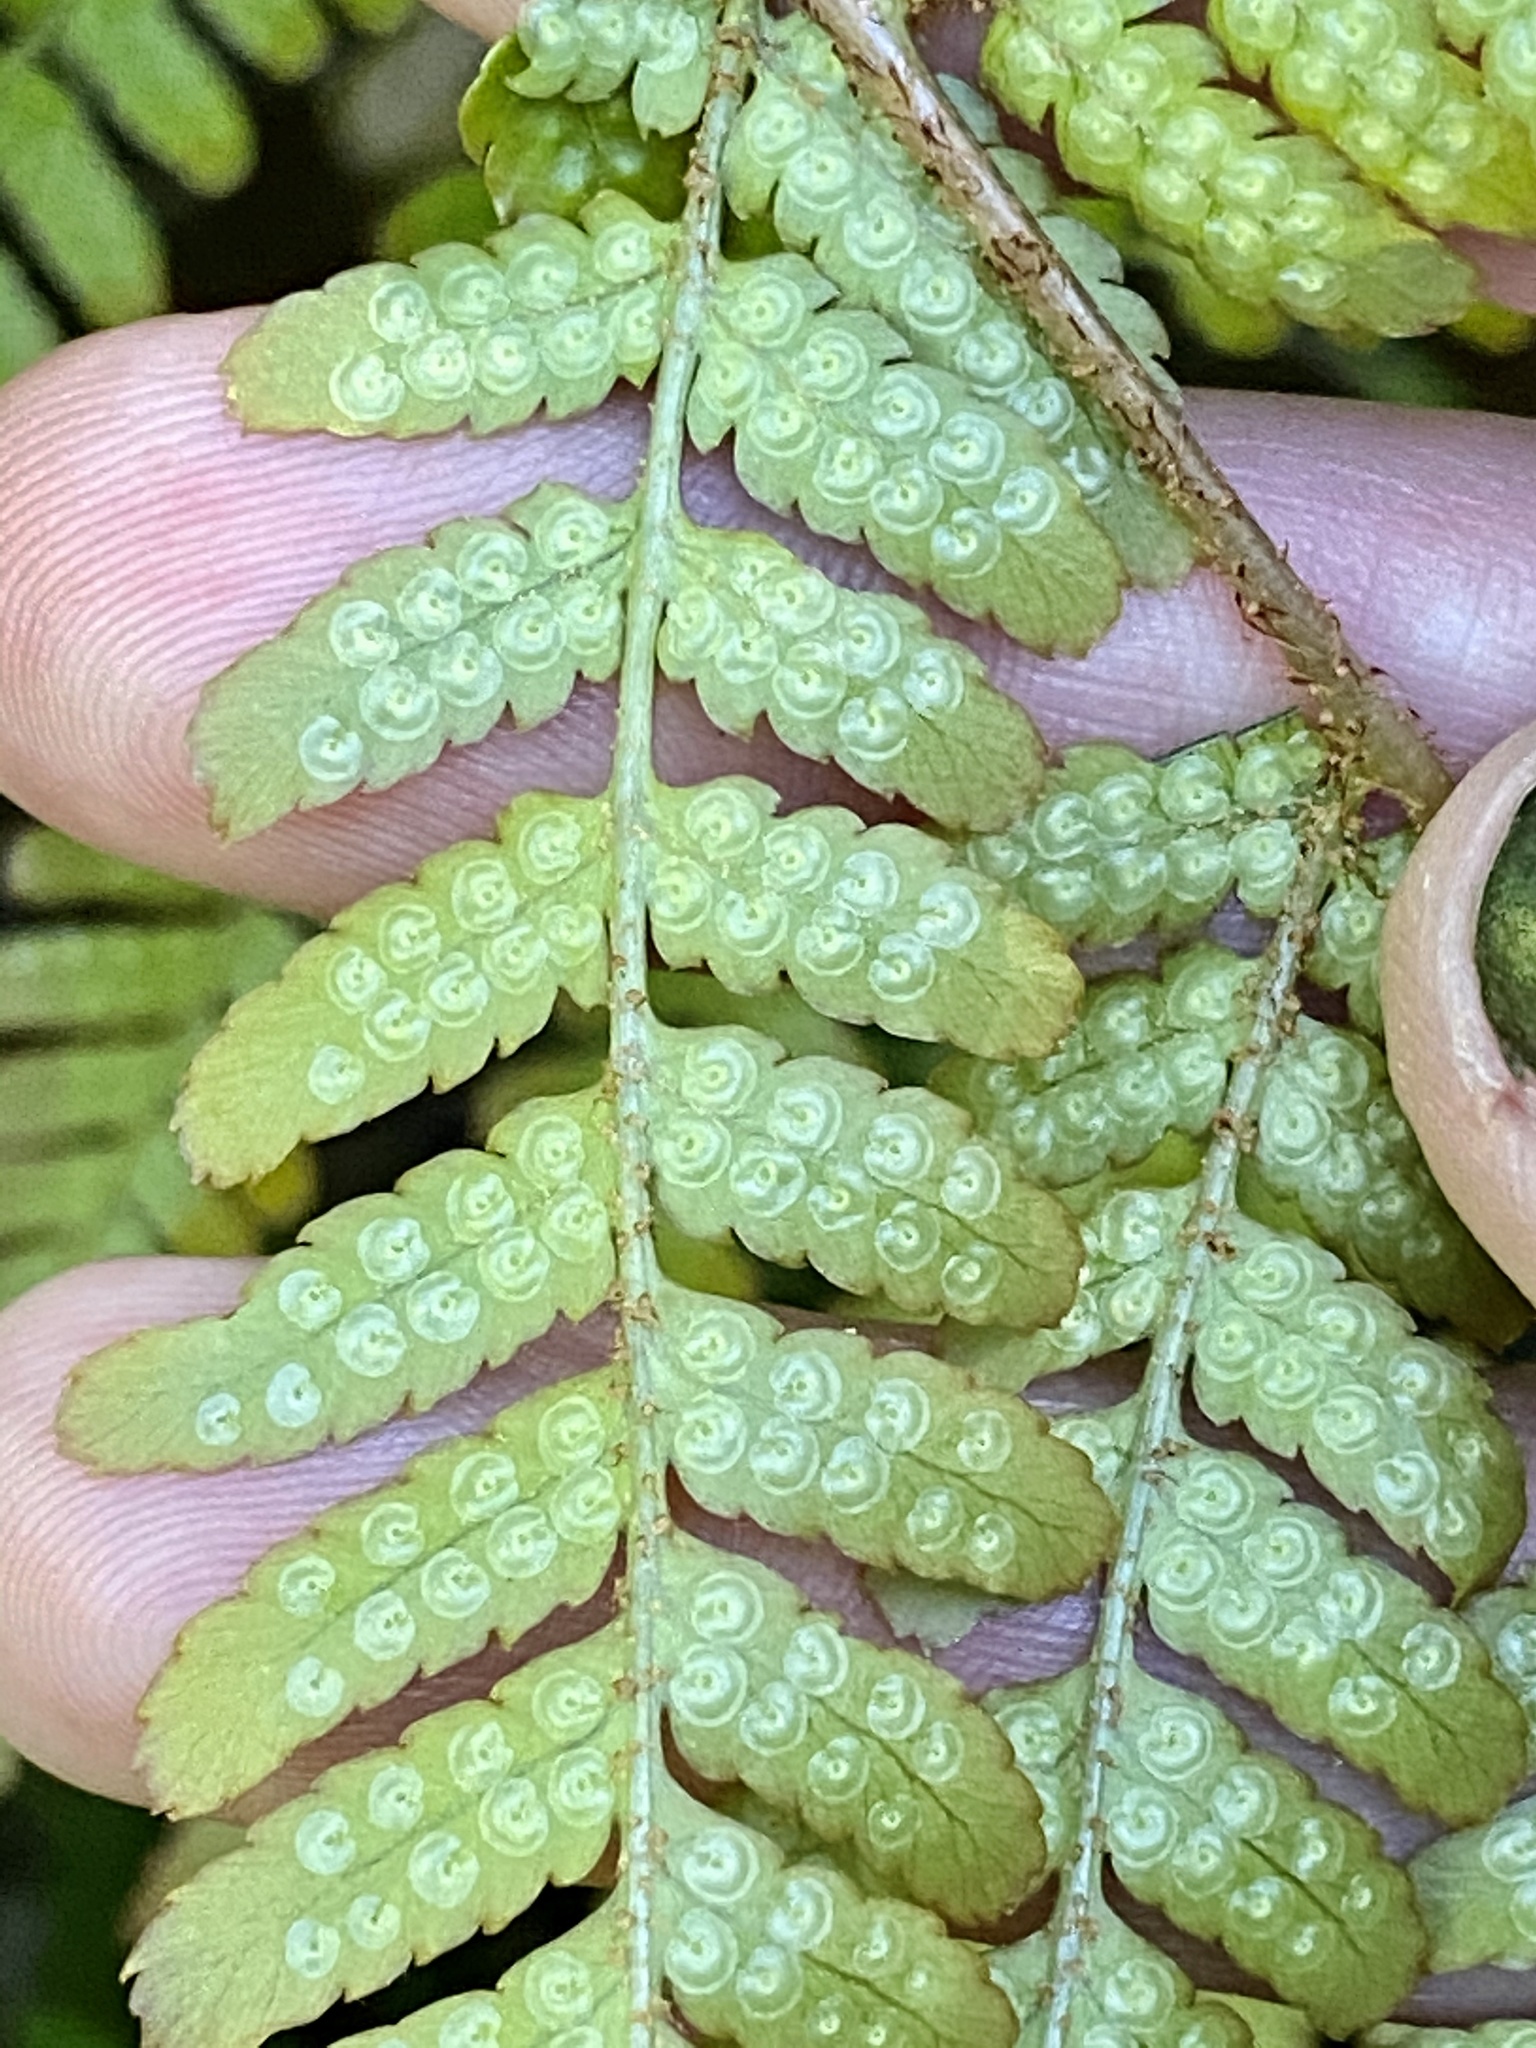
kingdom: Plantae
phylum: Tracheophyta
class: Polypodiopsida
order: Polypodiales
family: Dryopteridaceae
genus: Dryopteris
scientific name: Dryopteris erythrosora
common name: Autumn fern
